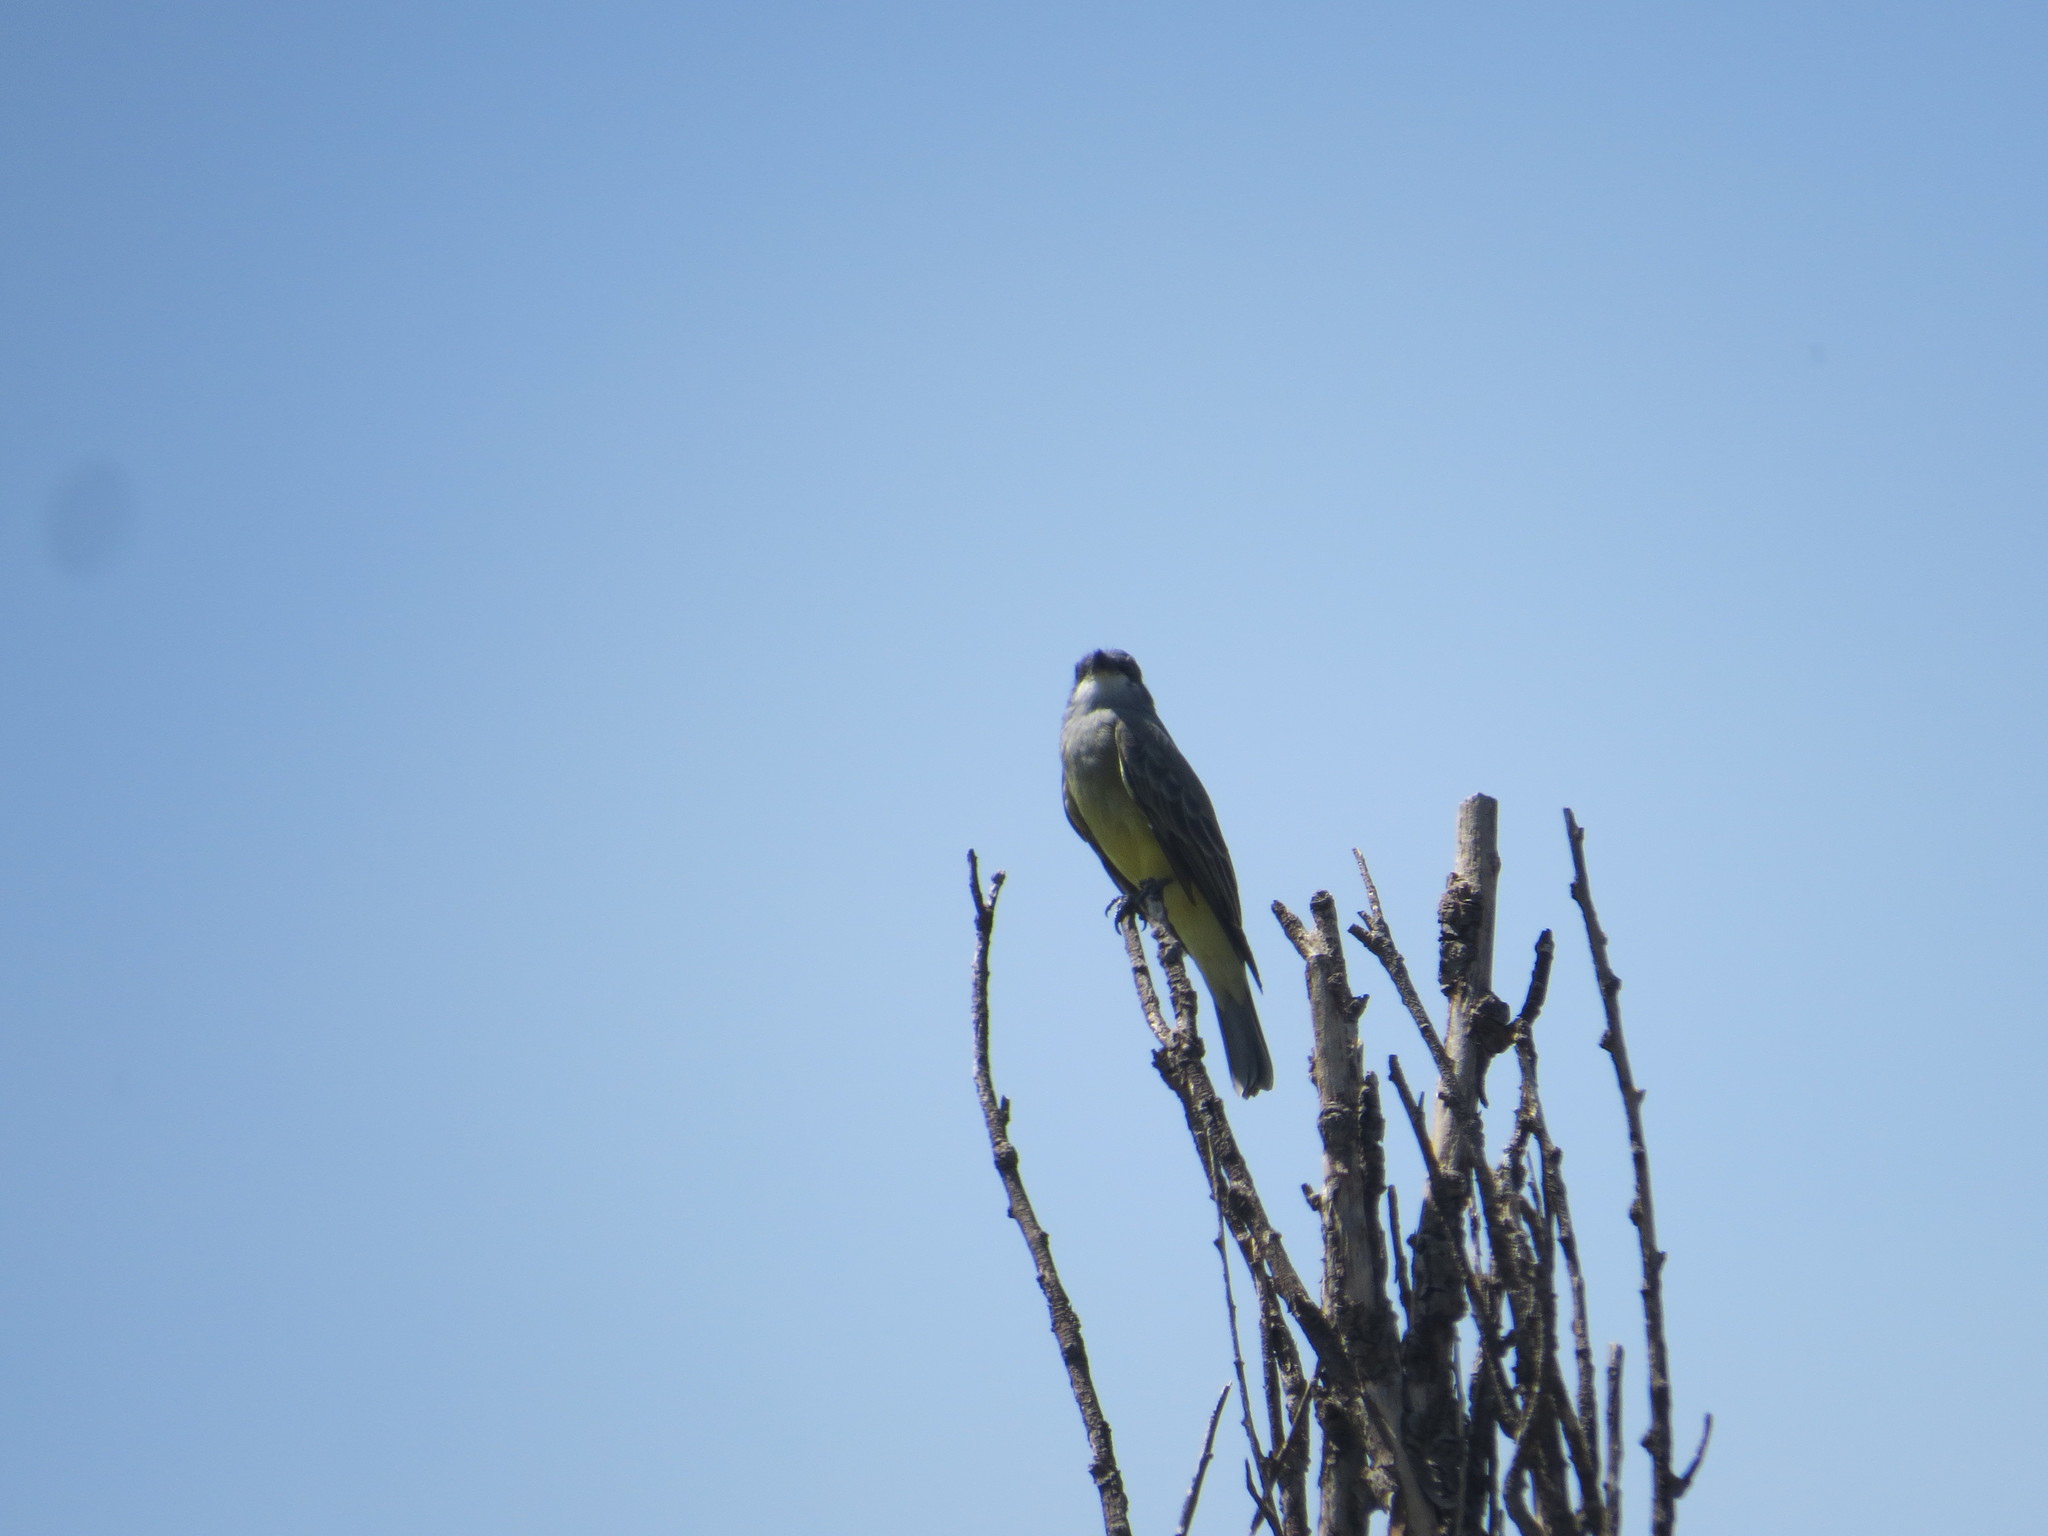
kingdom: Animalia
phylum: Chordata
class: Aves
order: Passeriformes
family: Tyrannidae
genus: Tyrannus
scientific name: Tyrannus vociferans
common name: Cassin's kingbird
